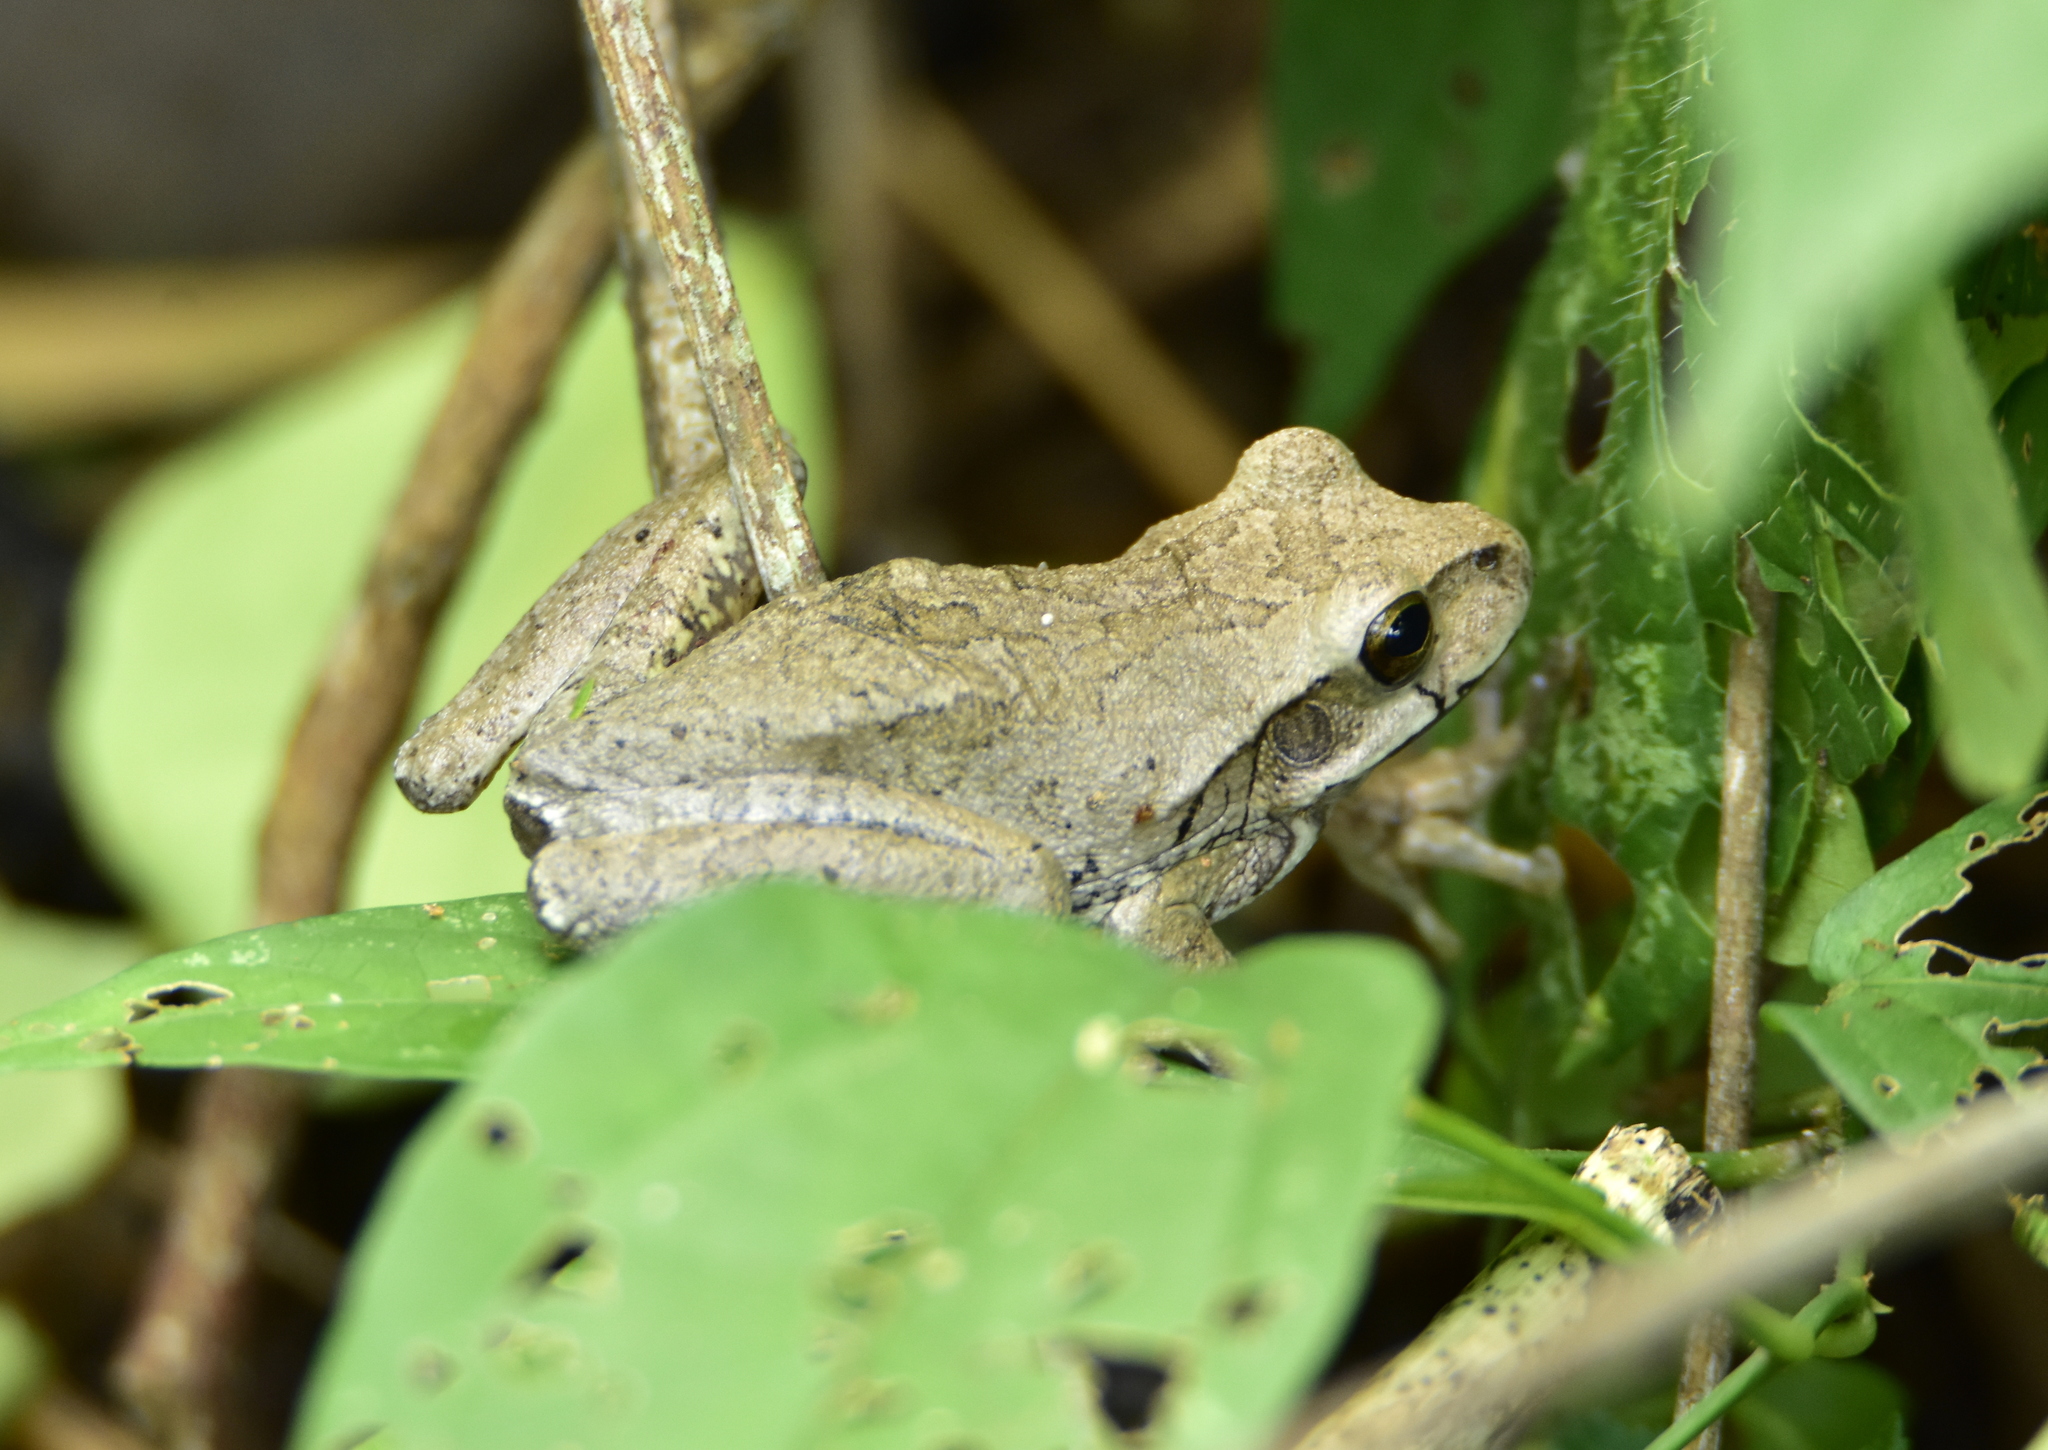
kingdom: Animalia
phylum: Chordata
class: Amphibia
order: Anura
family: Hylidae
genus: Smilisca
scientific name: Smilisca baudinii
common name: Mexican smilisca
